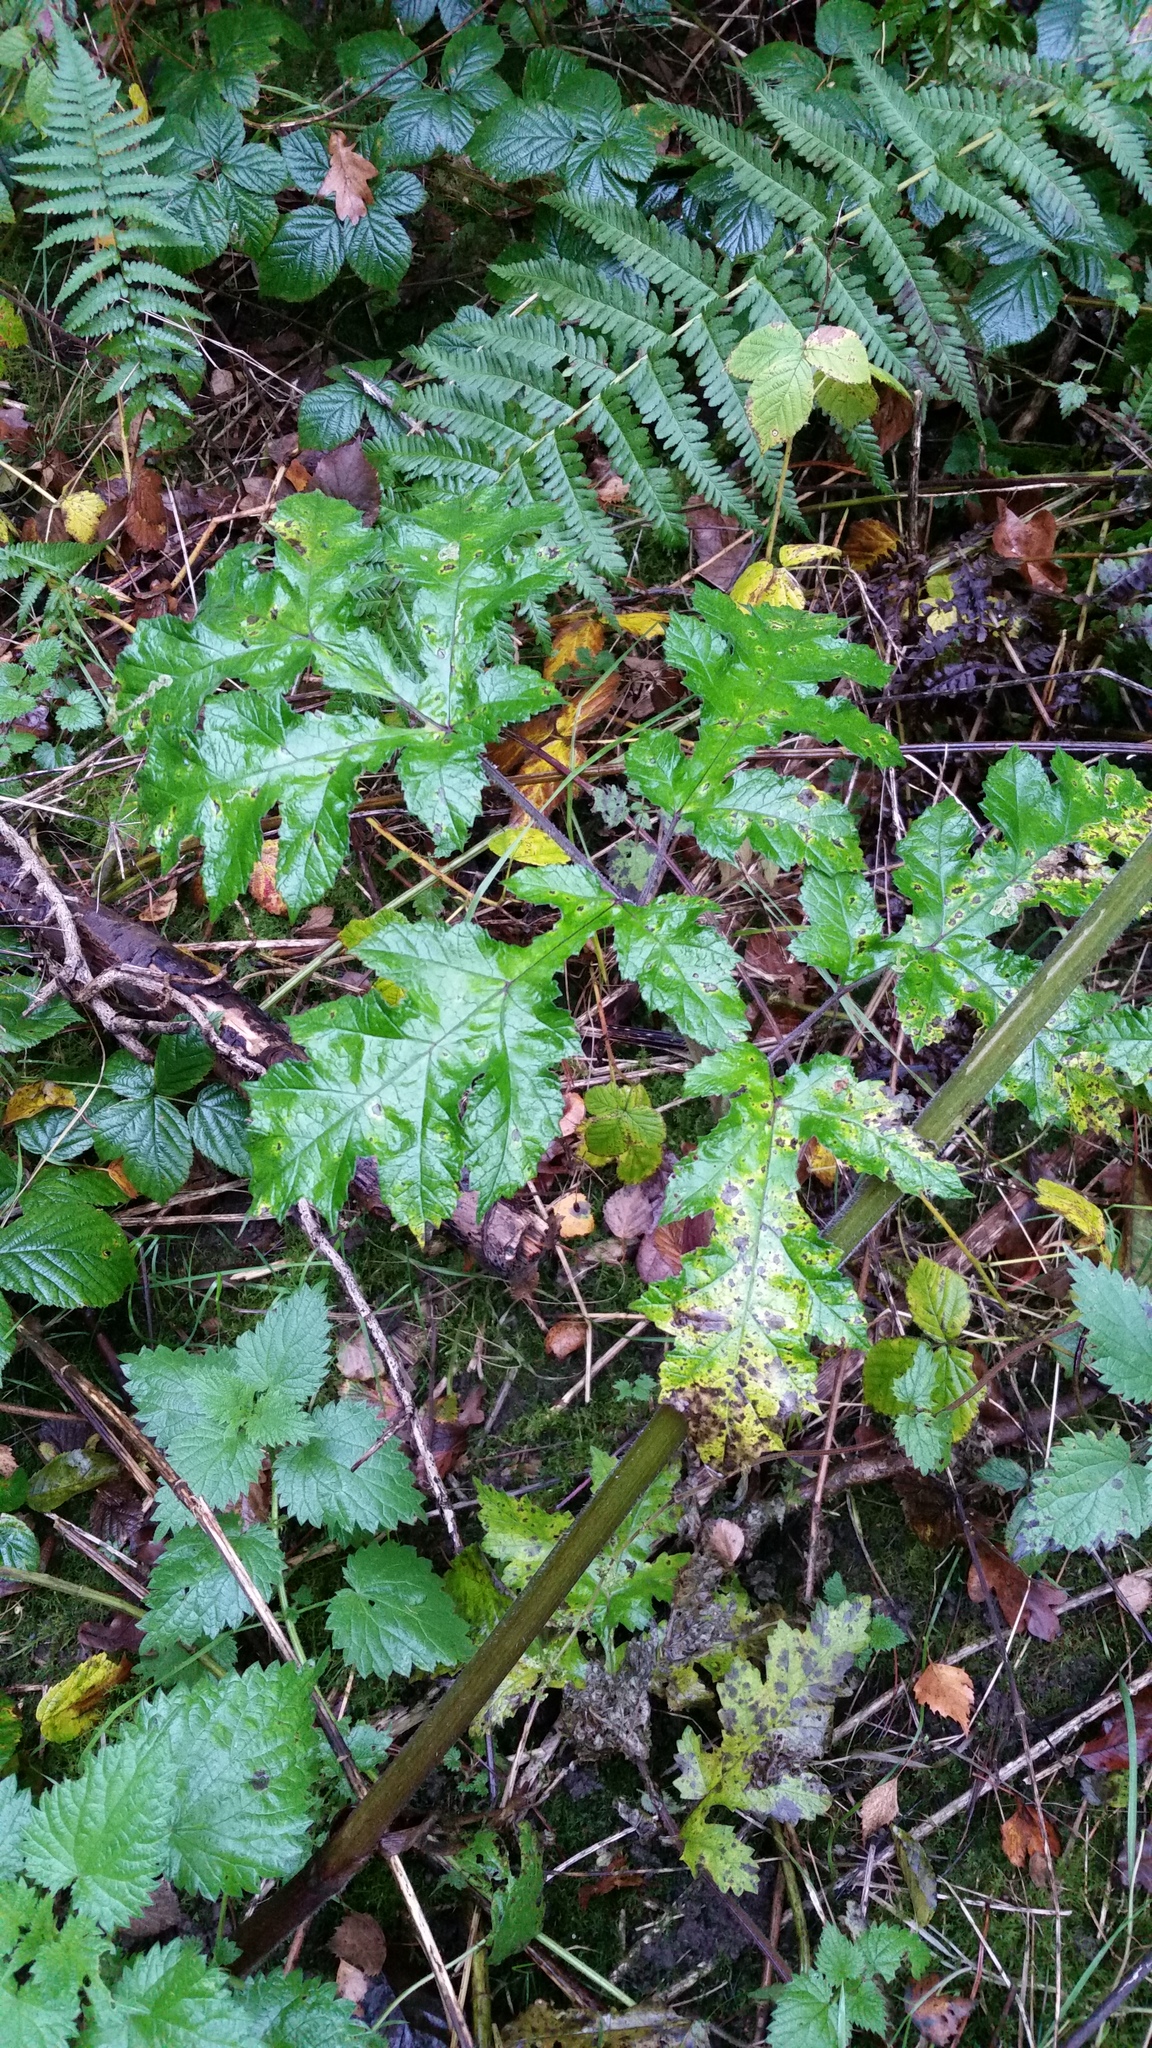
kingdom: Plantae
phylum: Tracheophyta
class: Magnoliopsida
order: Apiales
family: Apiaceae
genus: Heracleum
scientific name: Heracleum sphondylium
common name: Hogweed
